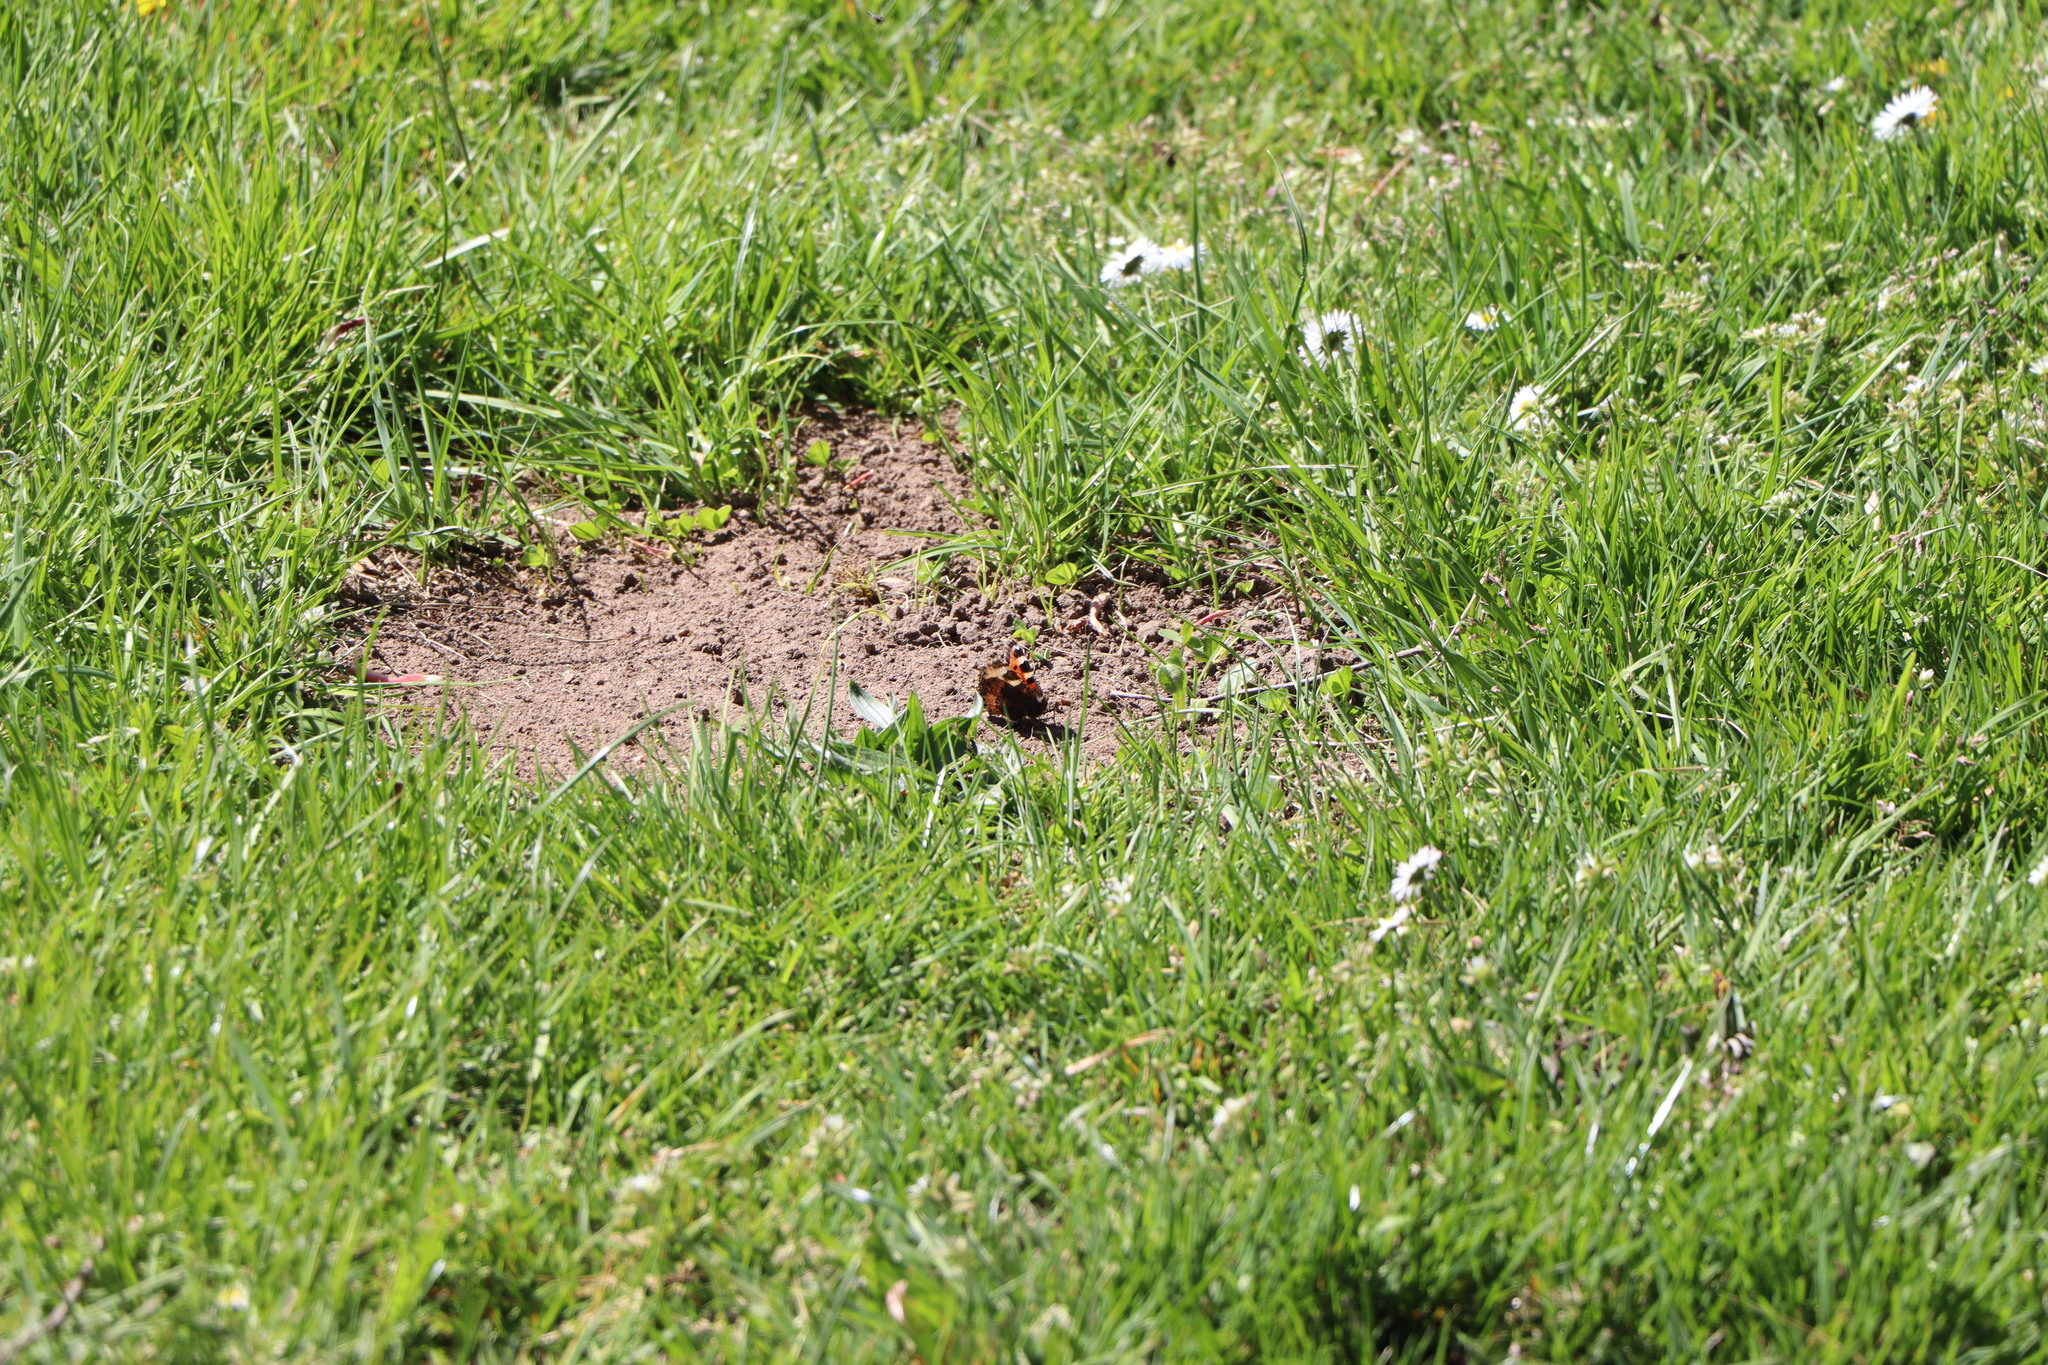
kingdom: Animalia
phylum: Arthropoda
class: Insecta
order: Lepidoptera
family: Nymphalidae
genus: Aglais
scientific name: Aglais urticae
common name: Small tortoiseshell
